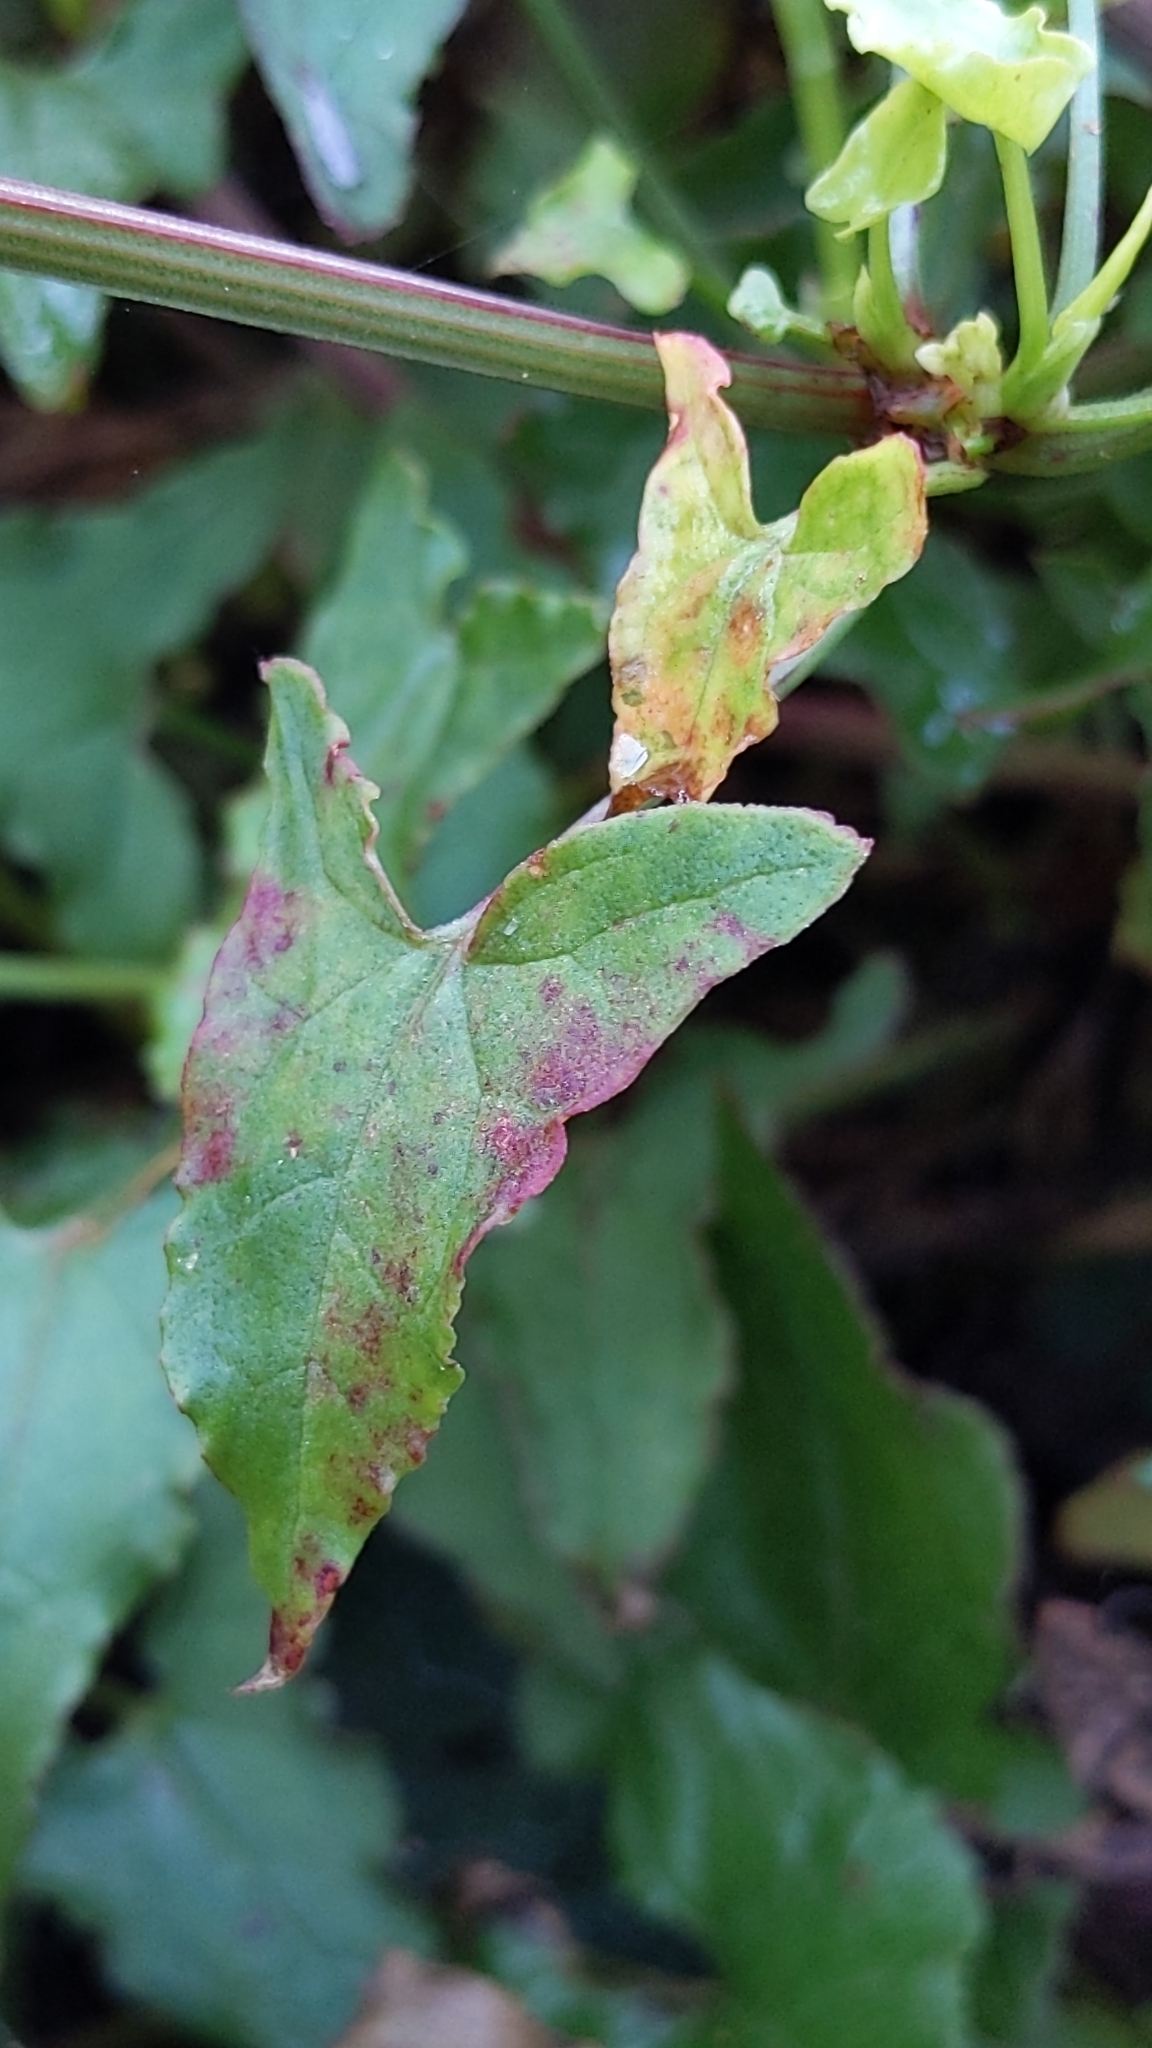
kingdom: Plantae
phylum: Tracheophyta
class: Magnoliopsida
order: Caryophyllales
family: Polygonaceae
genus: Rumex
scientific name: Rumex sagittatus
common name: Climbing dock
